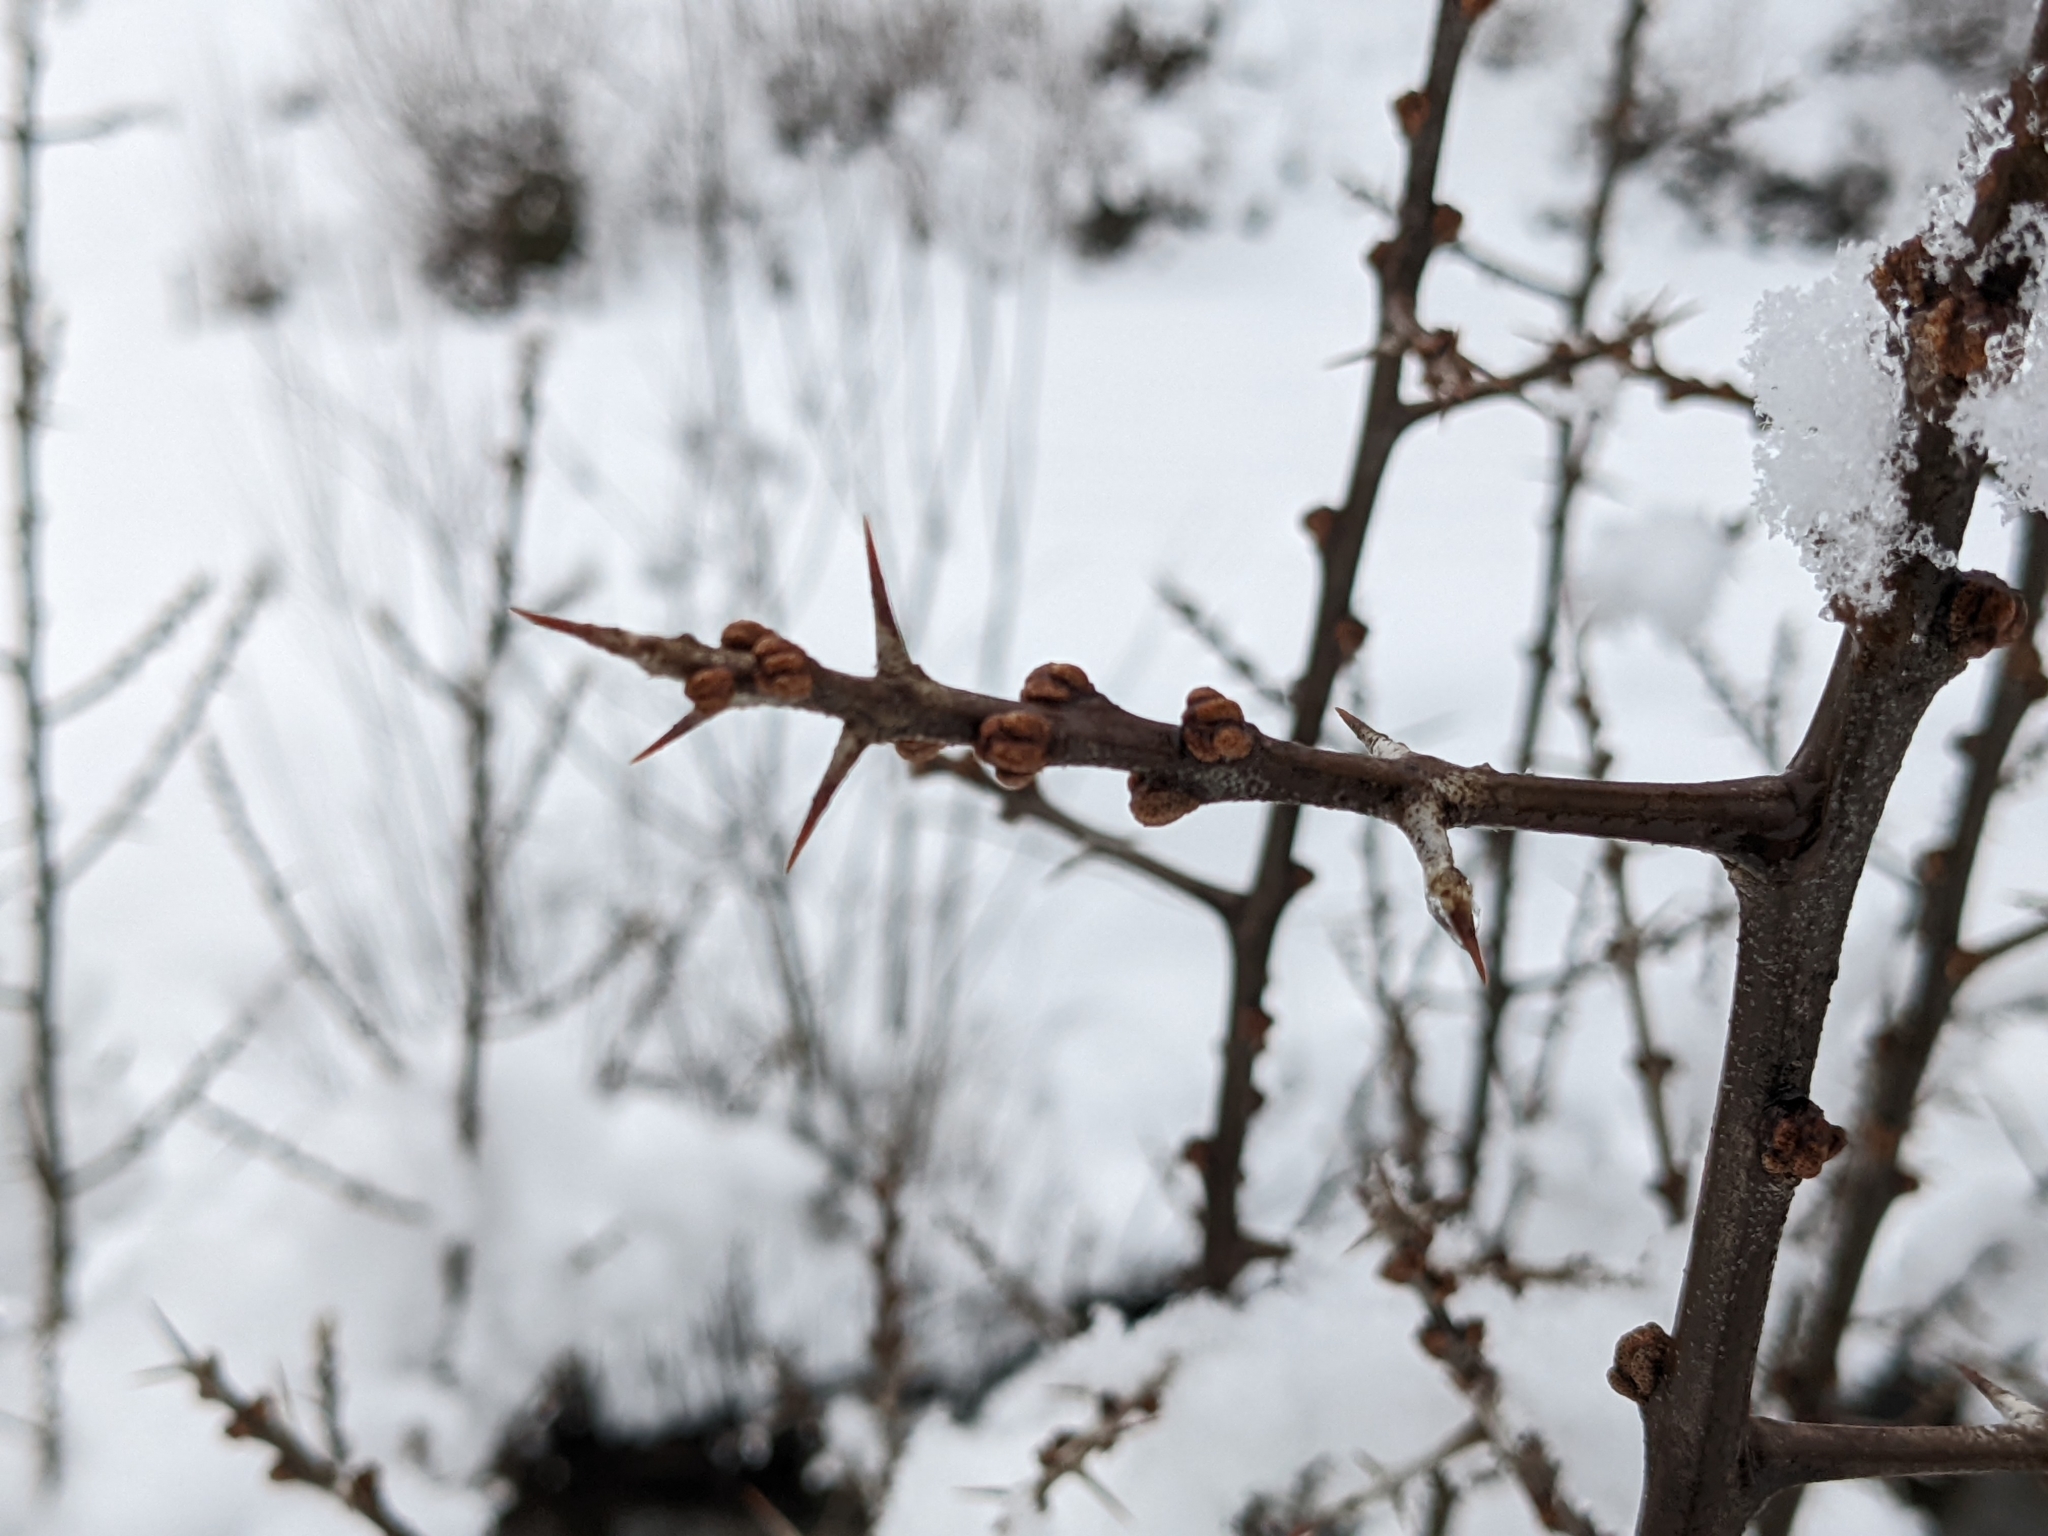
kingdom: Plantae
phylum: Tracheophyta
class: Magnoliopsida
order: Rosales
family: Elaeagnaceae
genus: Hippophae
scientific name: Hippophae rhamnoides
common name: Sea-buckthorn
